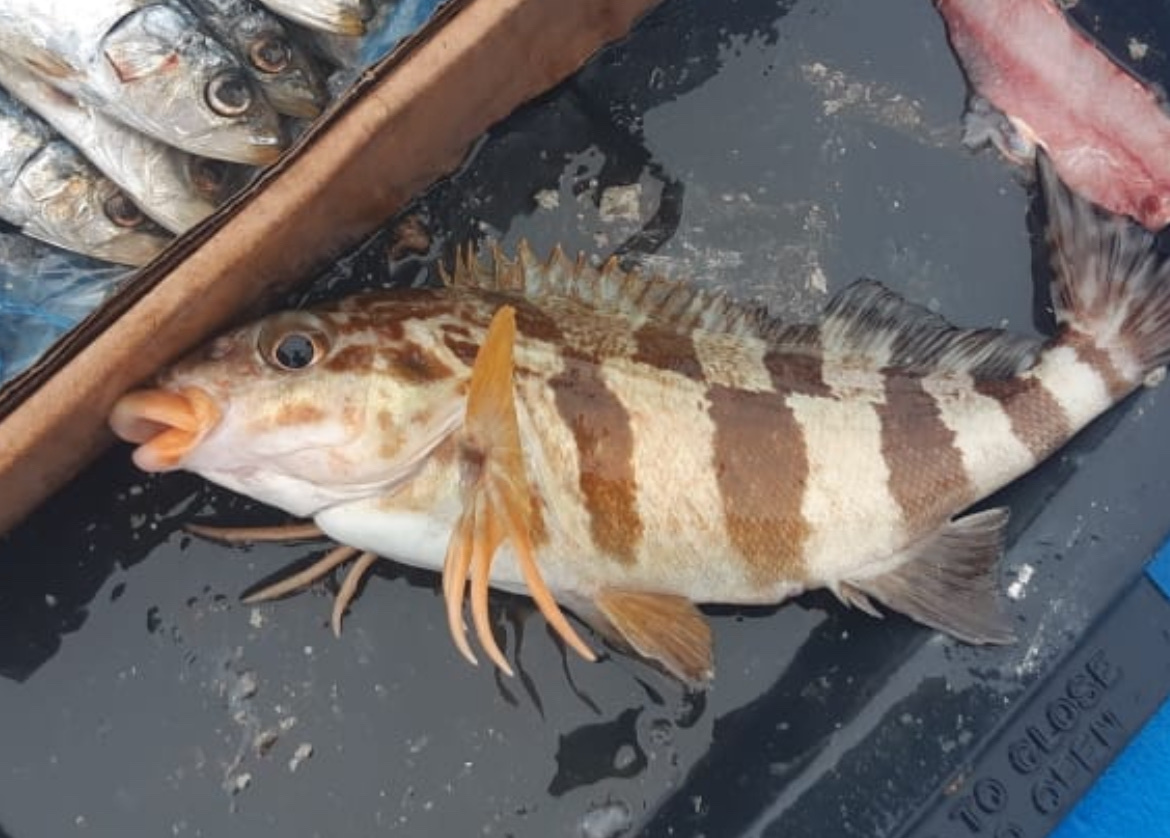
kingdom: Animalia
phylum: Chordata
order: Perciformes
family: Cheilodactylidae
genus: Cheilodactylus
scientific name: Cheilodactylus fasciatus
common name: Redfingers
